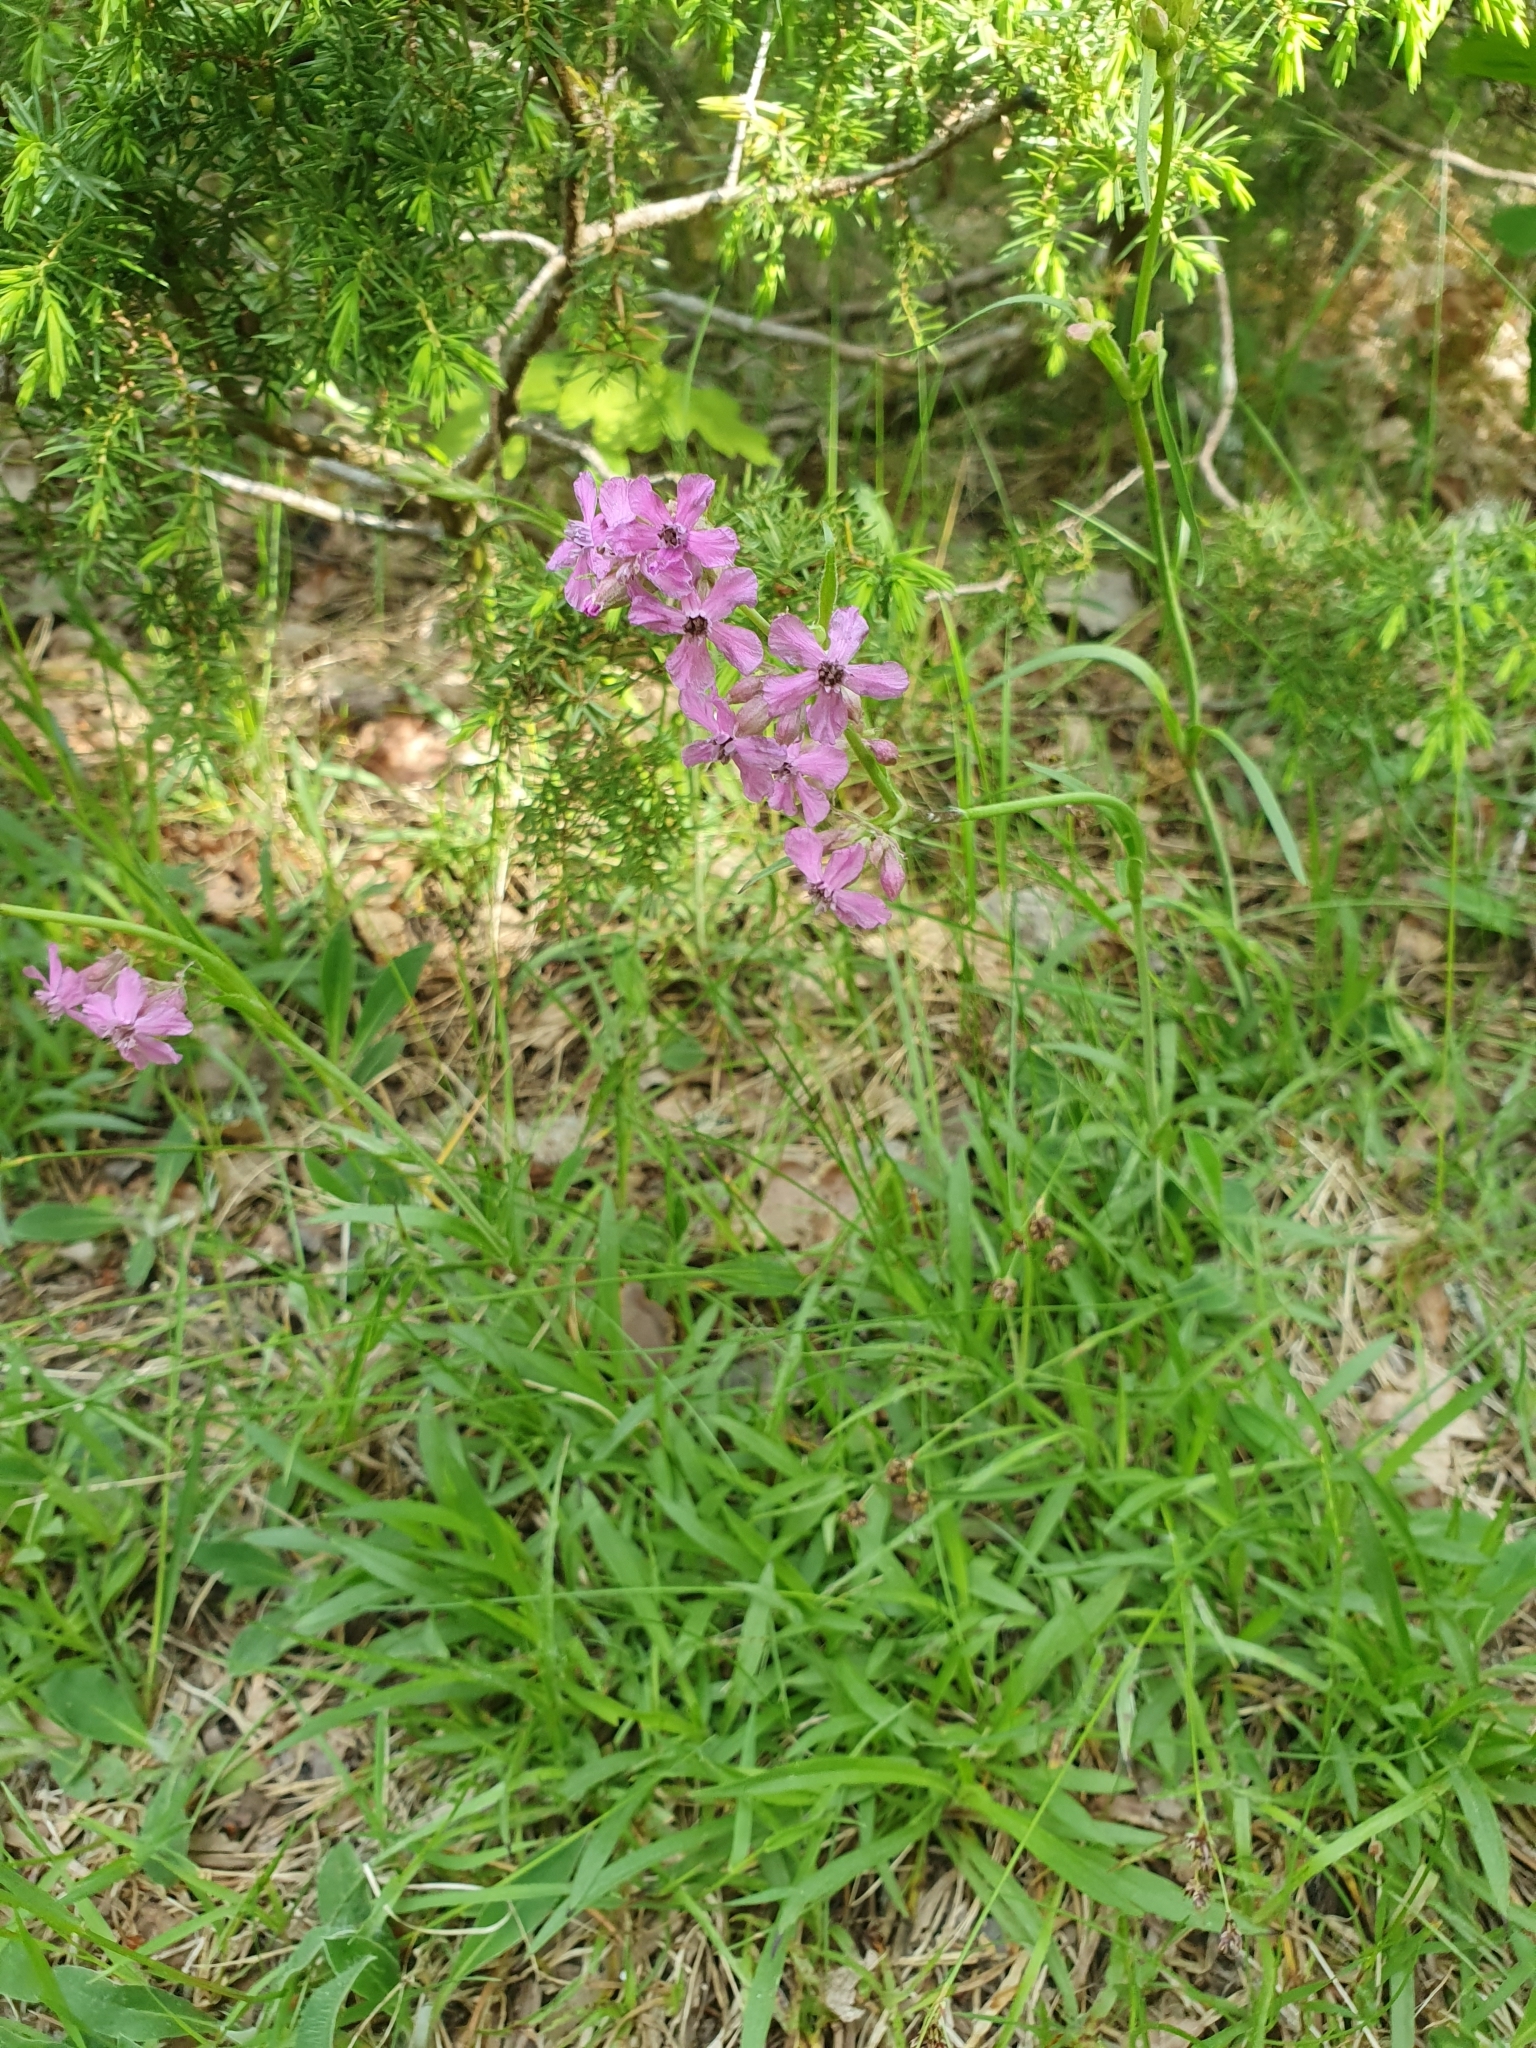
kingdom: Plantae
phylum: Tracheophyta
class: Magnoliopsida
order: Caryophyllales
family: Caryophyllaceae
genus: Viscaria
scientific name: Viscaria vulgaris
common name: Clammy campion
